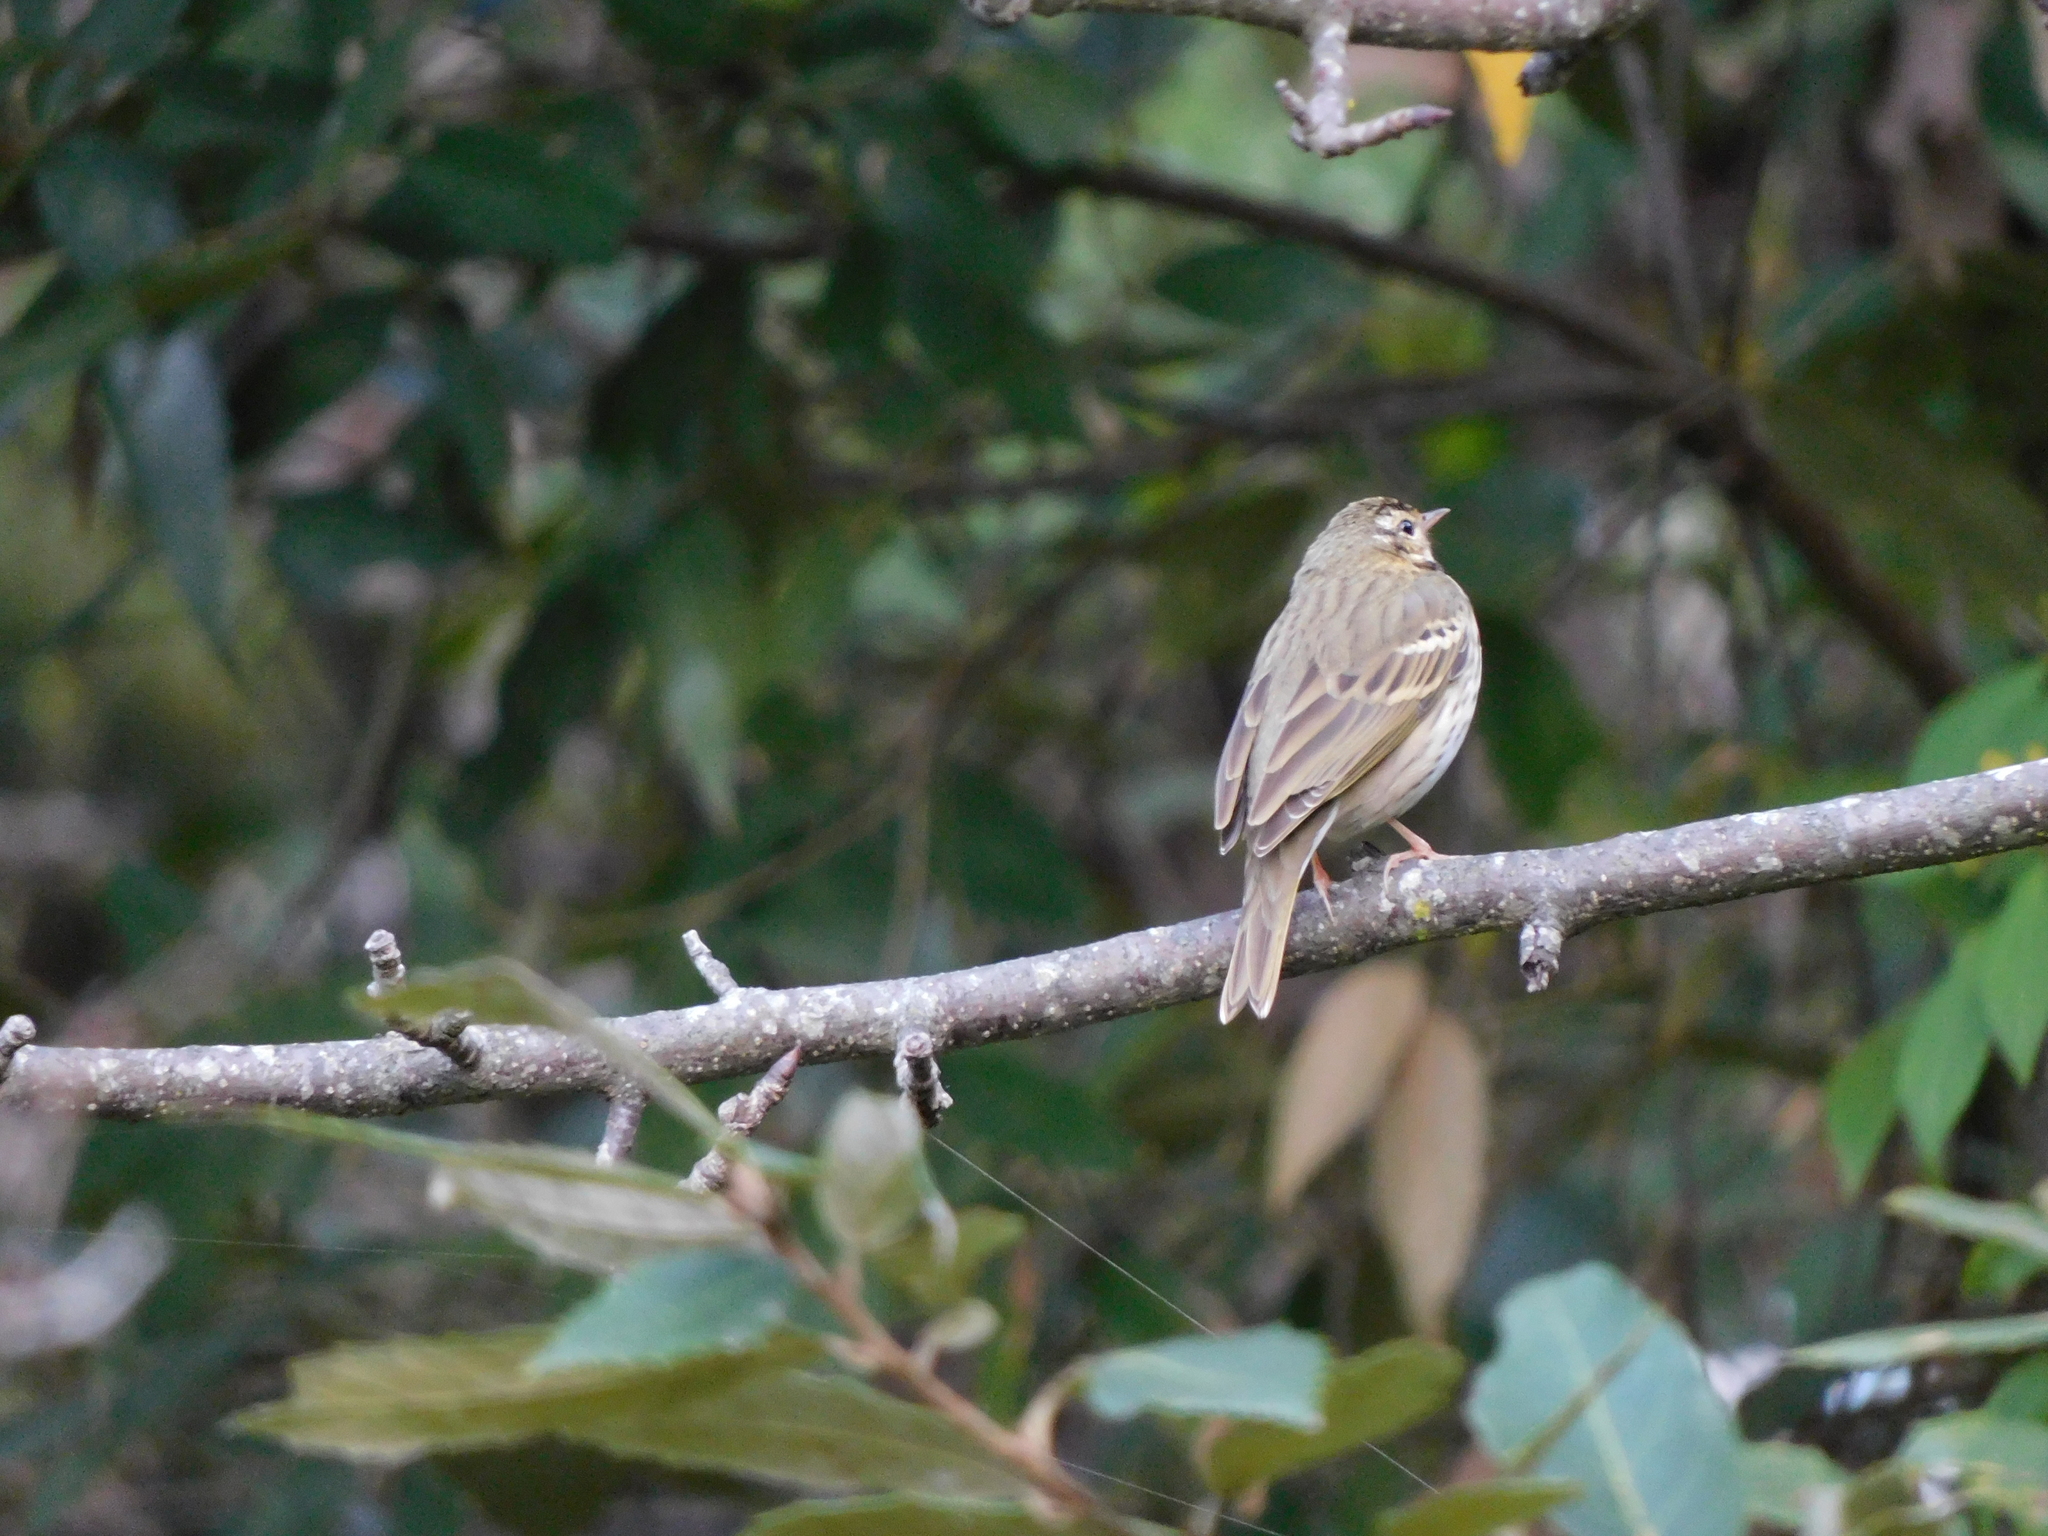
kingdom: Animalia
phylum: Chordata
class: Aves
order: Passeriformes
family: Motacillidae
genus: Anthus
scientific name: Anthus hodgsoni
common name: Olive-backed pipit
